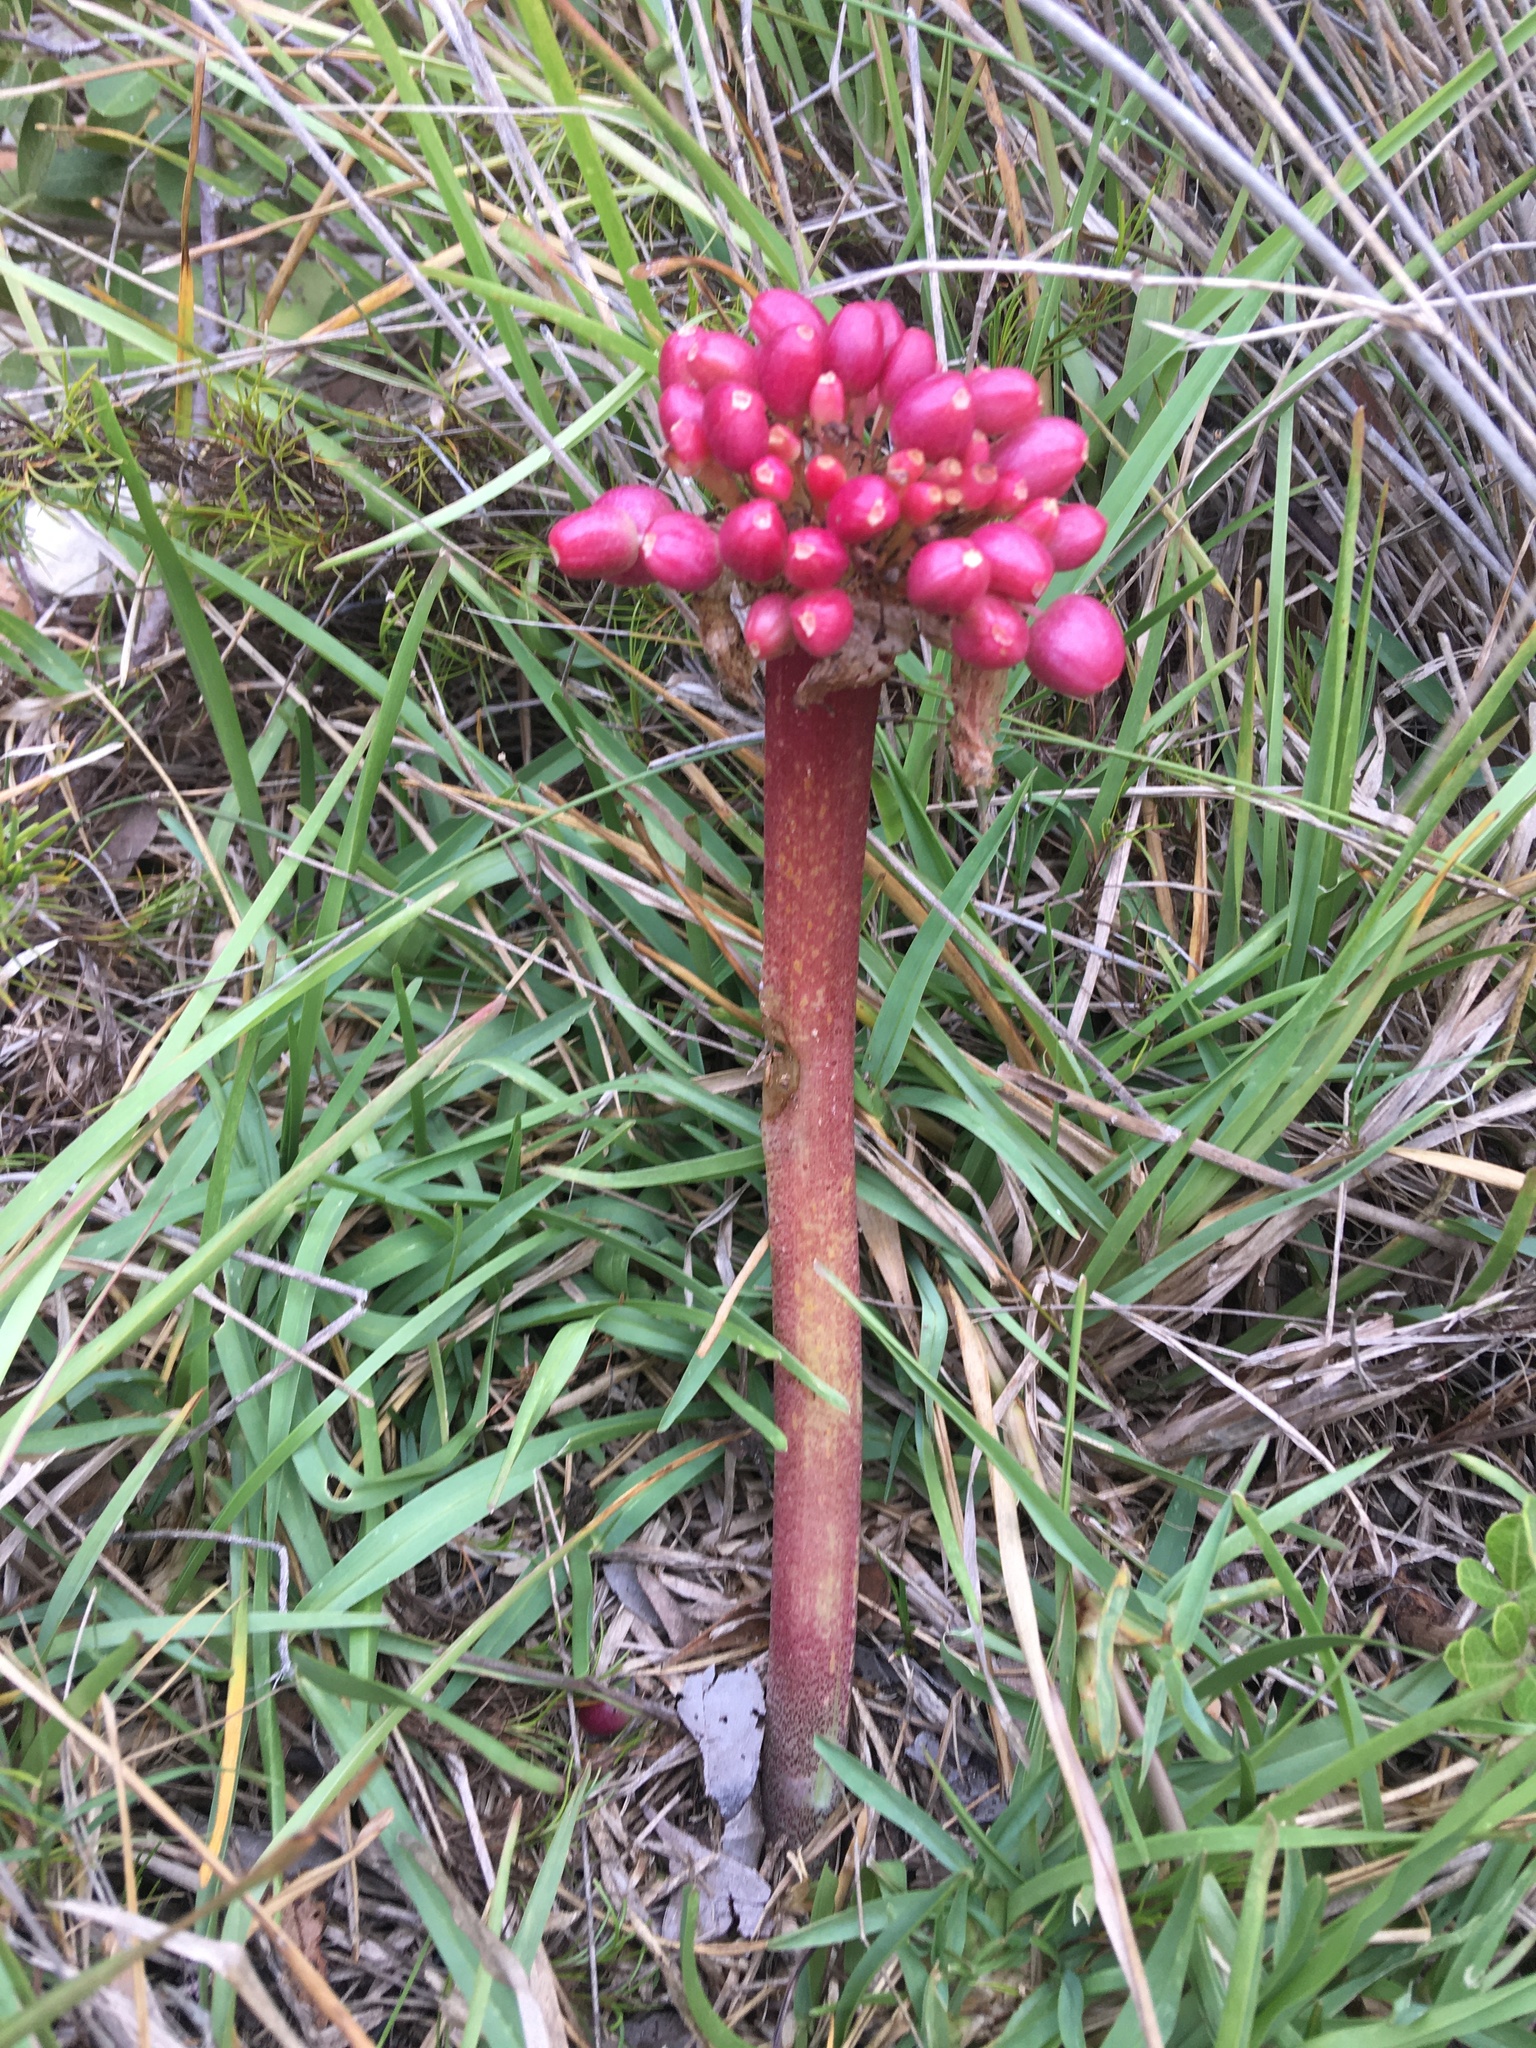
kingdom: Plantae
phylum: Tracheophyta
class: Liliopsida
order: Asparagales
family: Amaryllidaceae
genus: Haemanthus
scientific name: Haemanthus coccineus
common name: Cape-tulip
